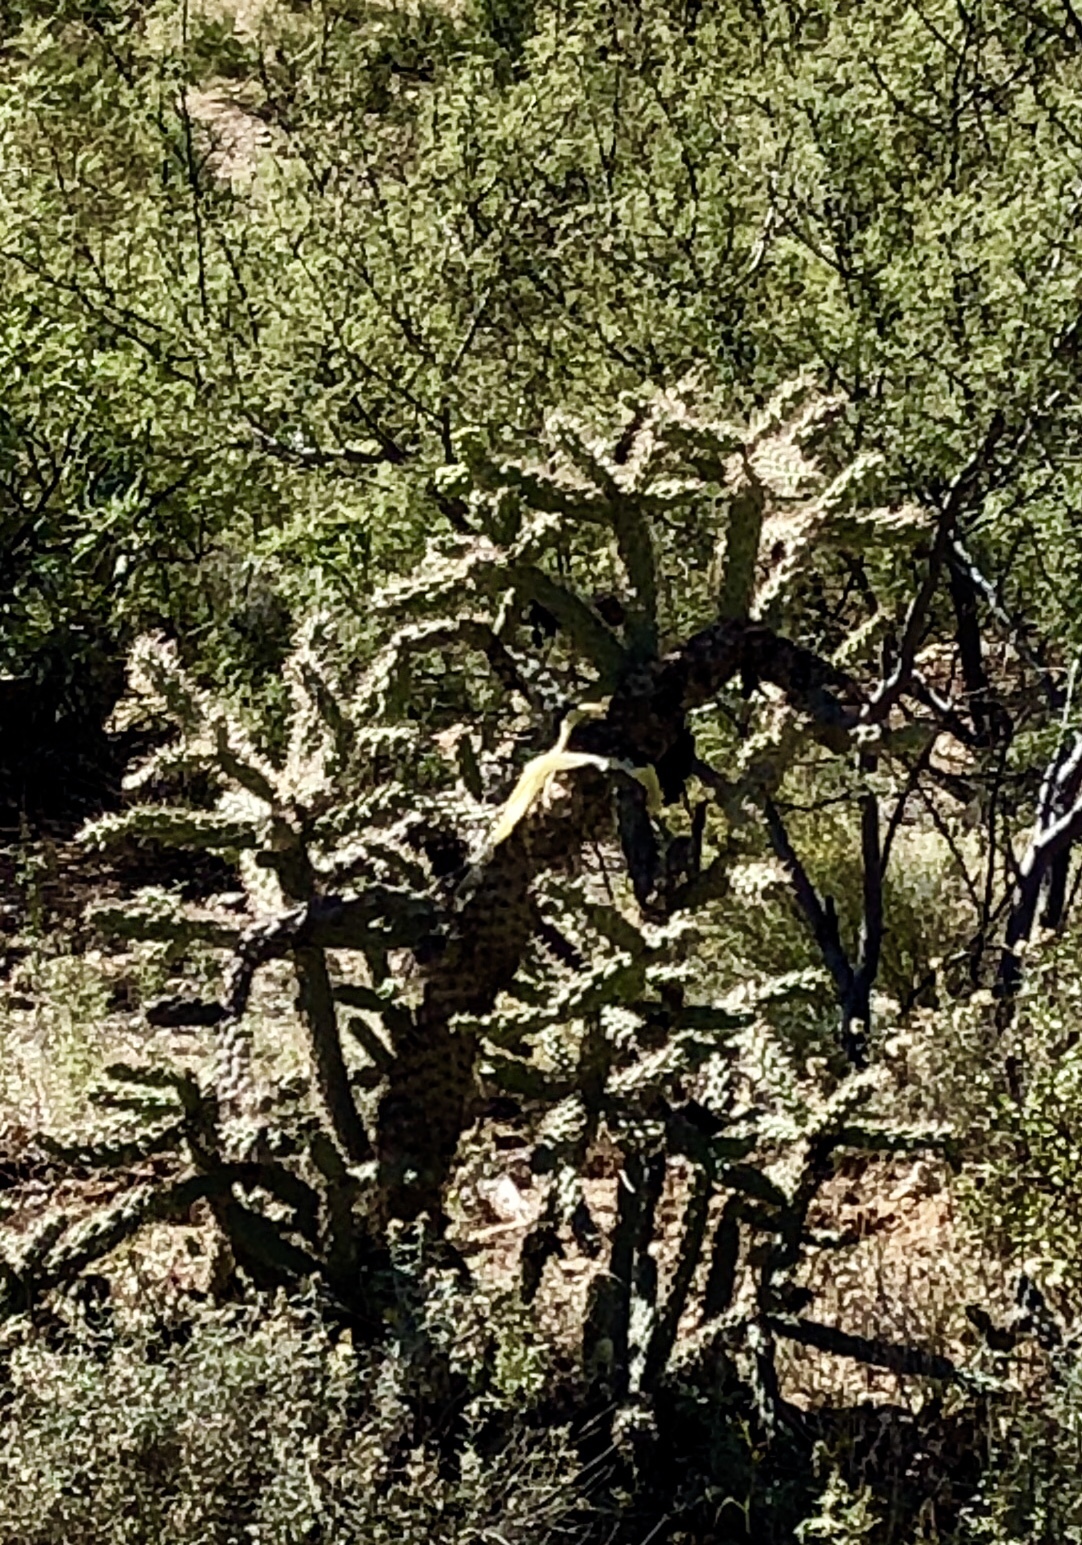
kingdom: Plantae
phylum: Tracheophyta
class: Magnoliopsida
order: Caryophyllales
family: Cactaceae
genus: Cylindropuntia
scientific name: Cylindropuntia imbricata
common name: Candelabrum cactus
